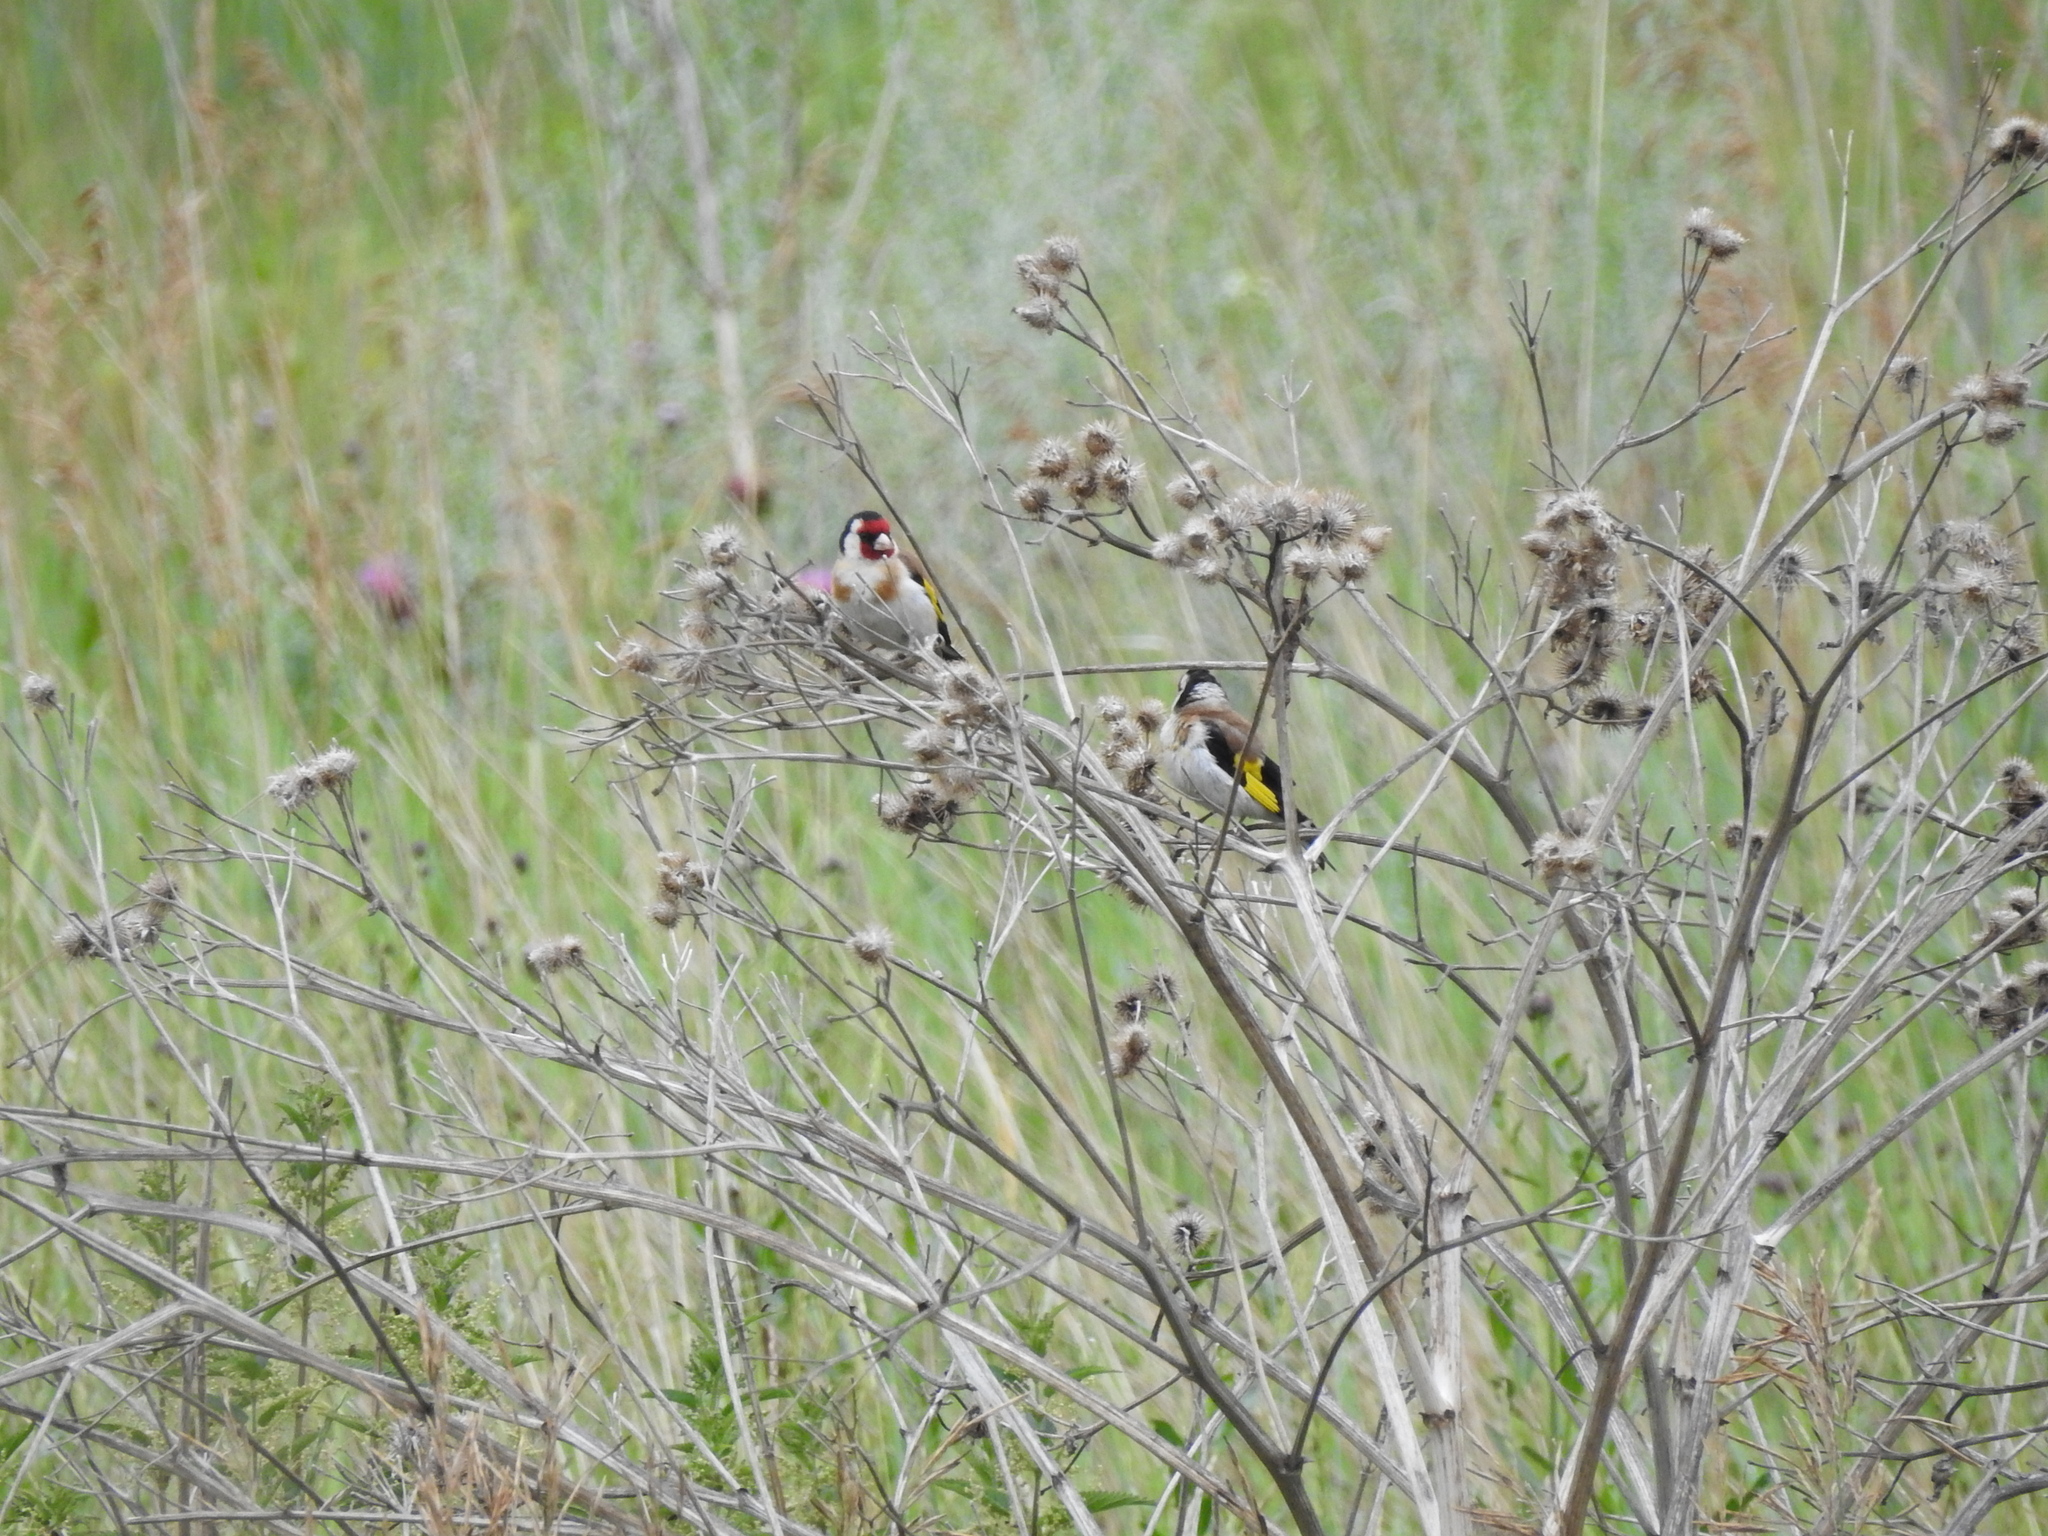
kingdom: Animalia
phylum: Chordata
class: Aves
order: Passeriformes
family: Fringillidae
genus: Carduelis
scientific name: Carduelis carduelis
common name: European goldfinch
